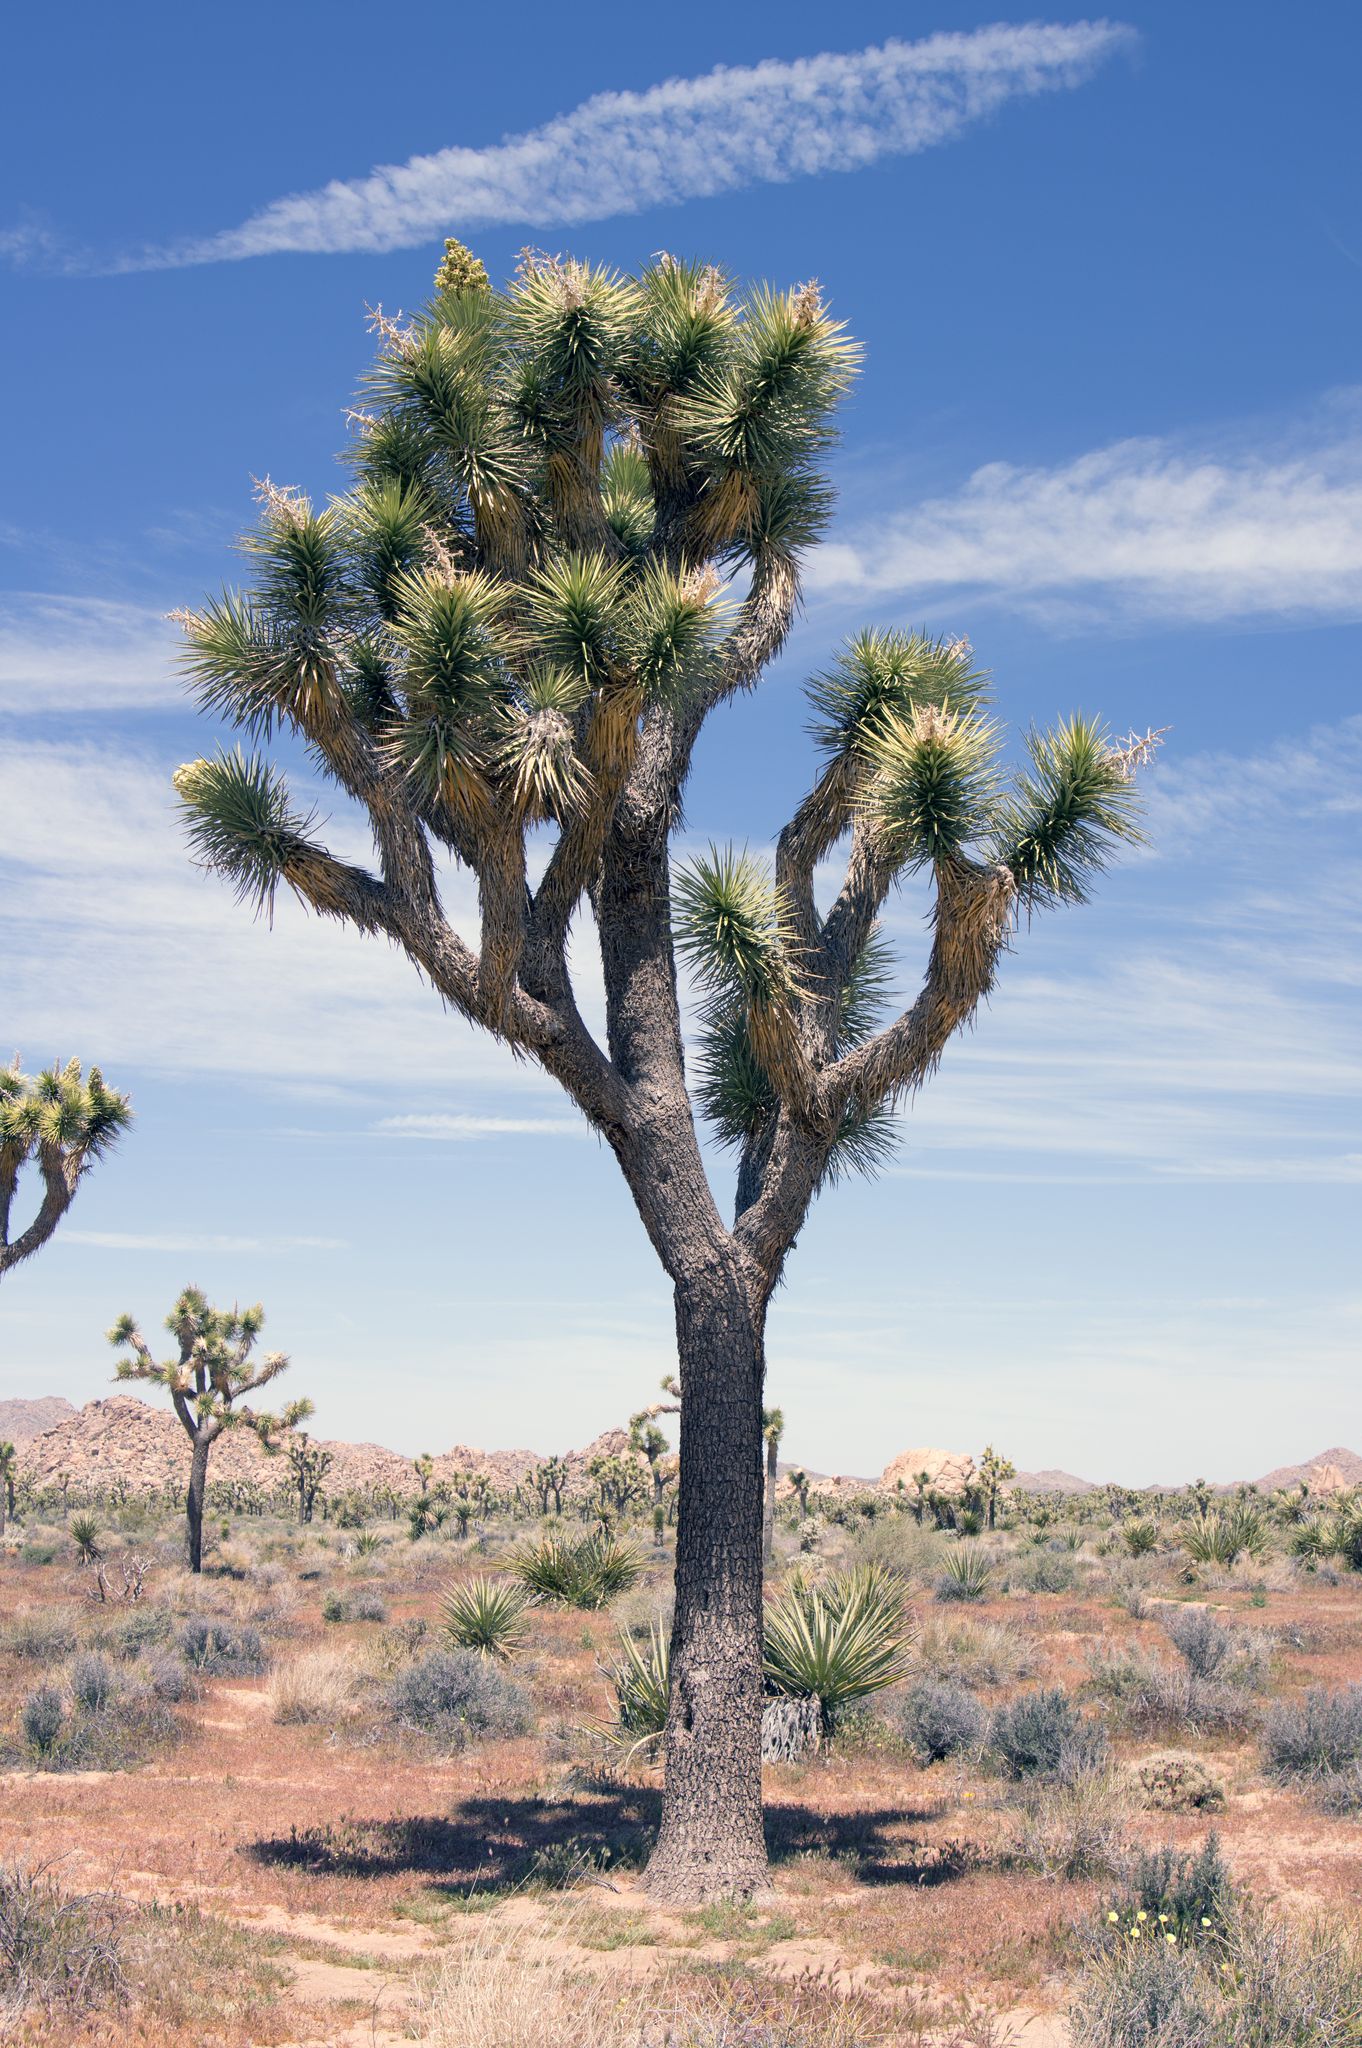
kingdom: Plantae
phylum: Tracheophyta
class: Liliopsida
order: Asparagales
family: Asparagaceae
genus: Yucca
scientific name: Yucca brevifolia
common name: Joshua tree
